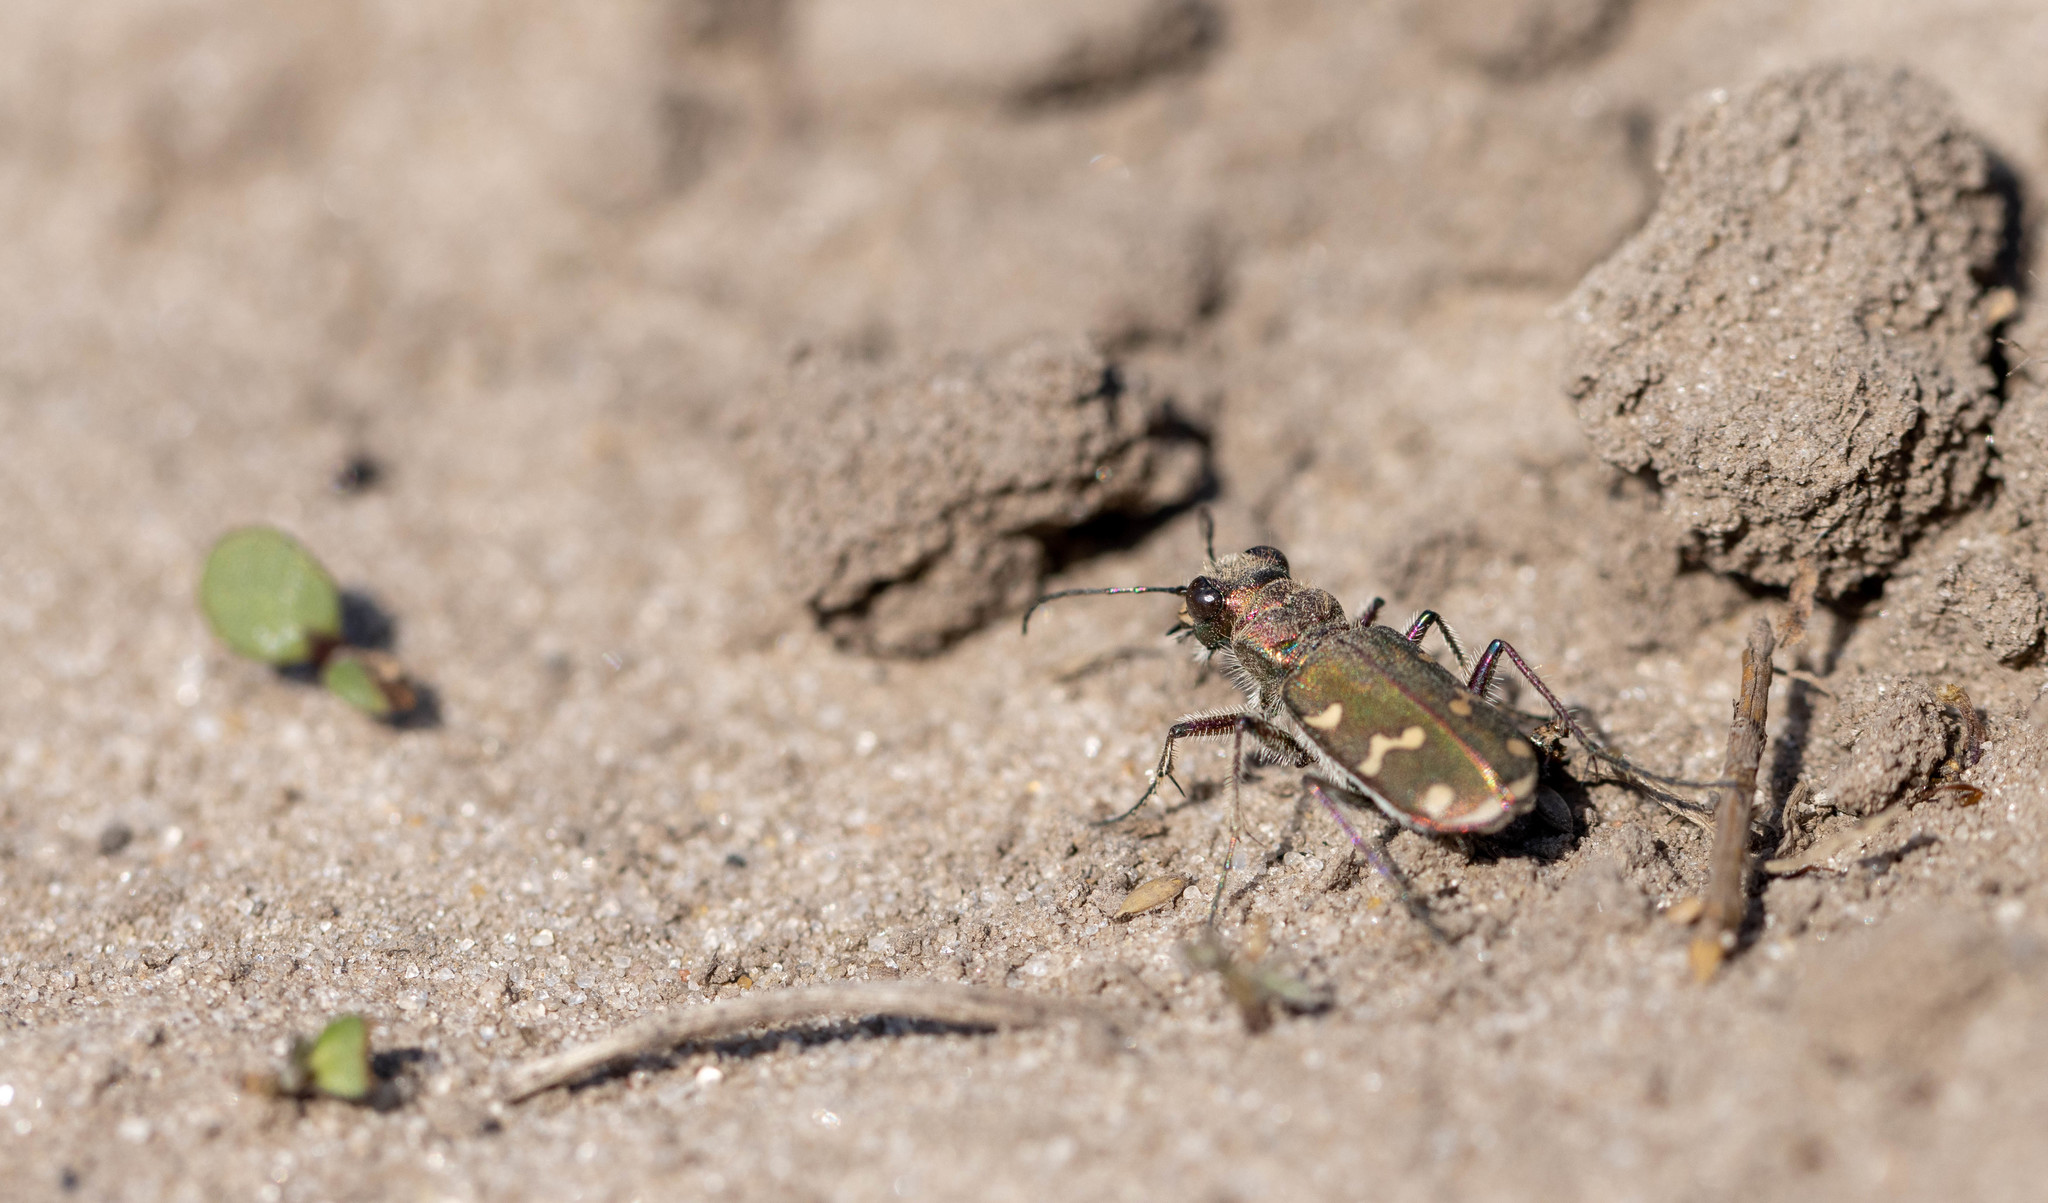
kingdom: Animalia
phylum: Arthropoda
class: Insecta
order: Coleoptera
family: Carabidae
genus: Cicindela
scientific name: Cicindela soluta
